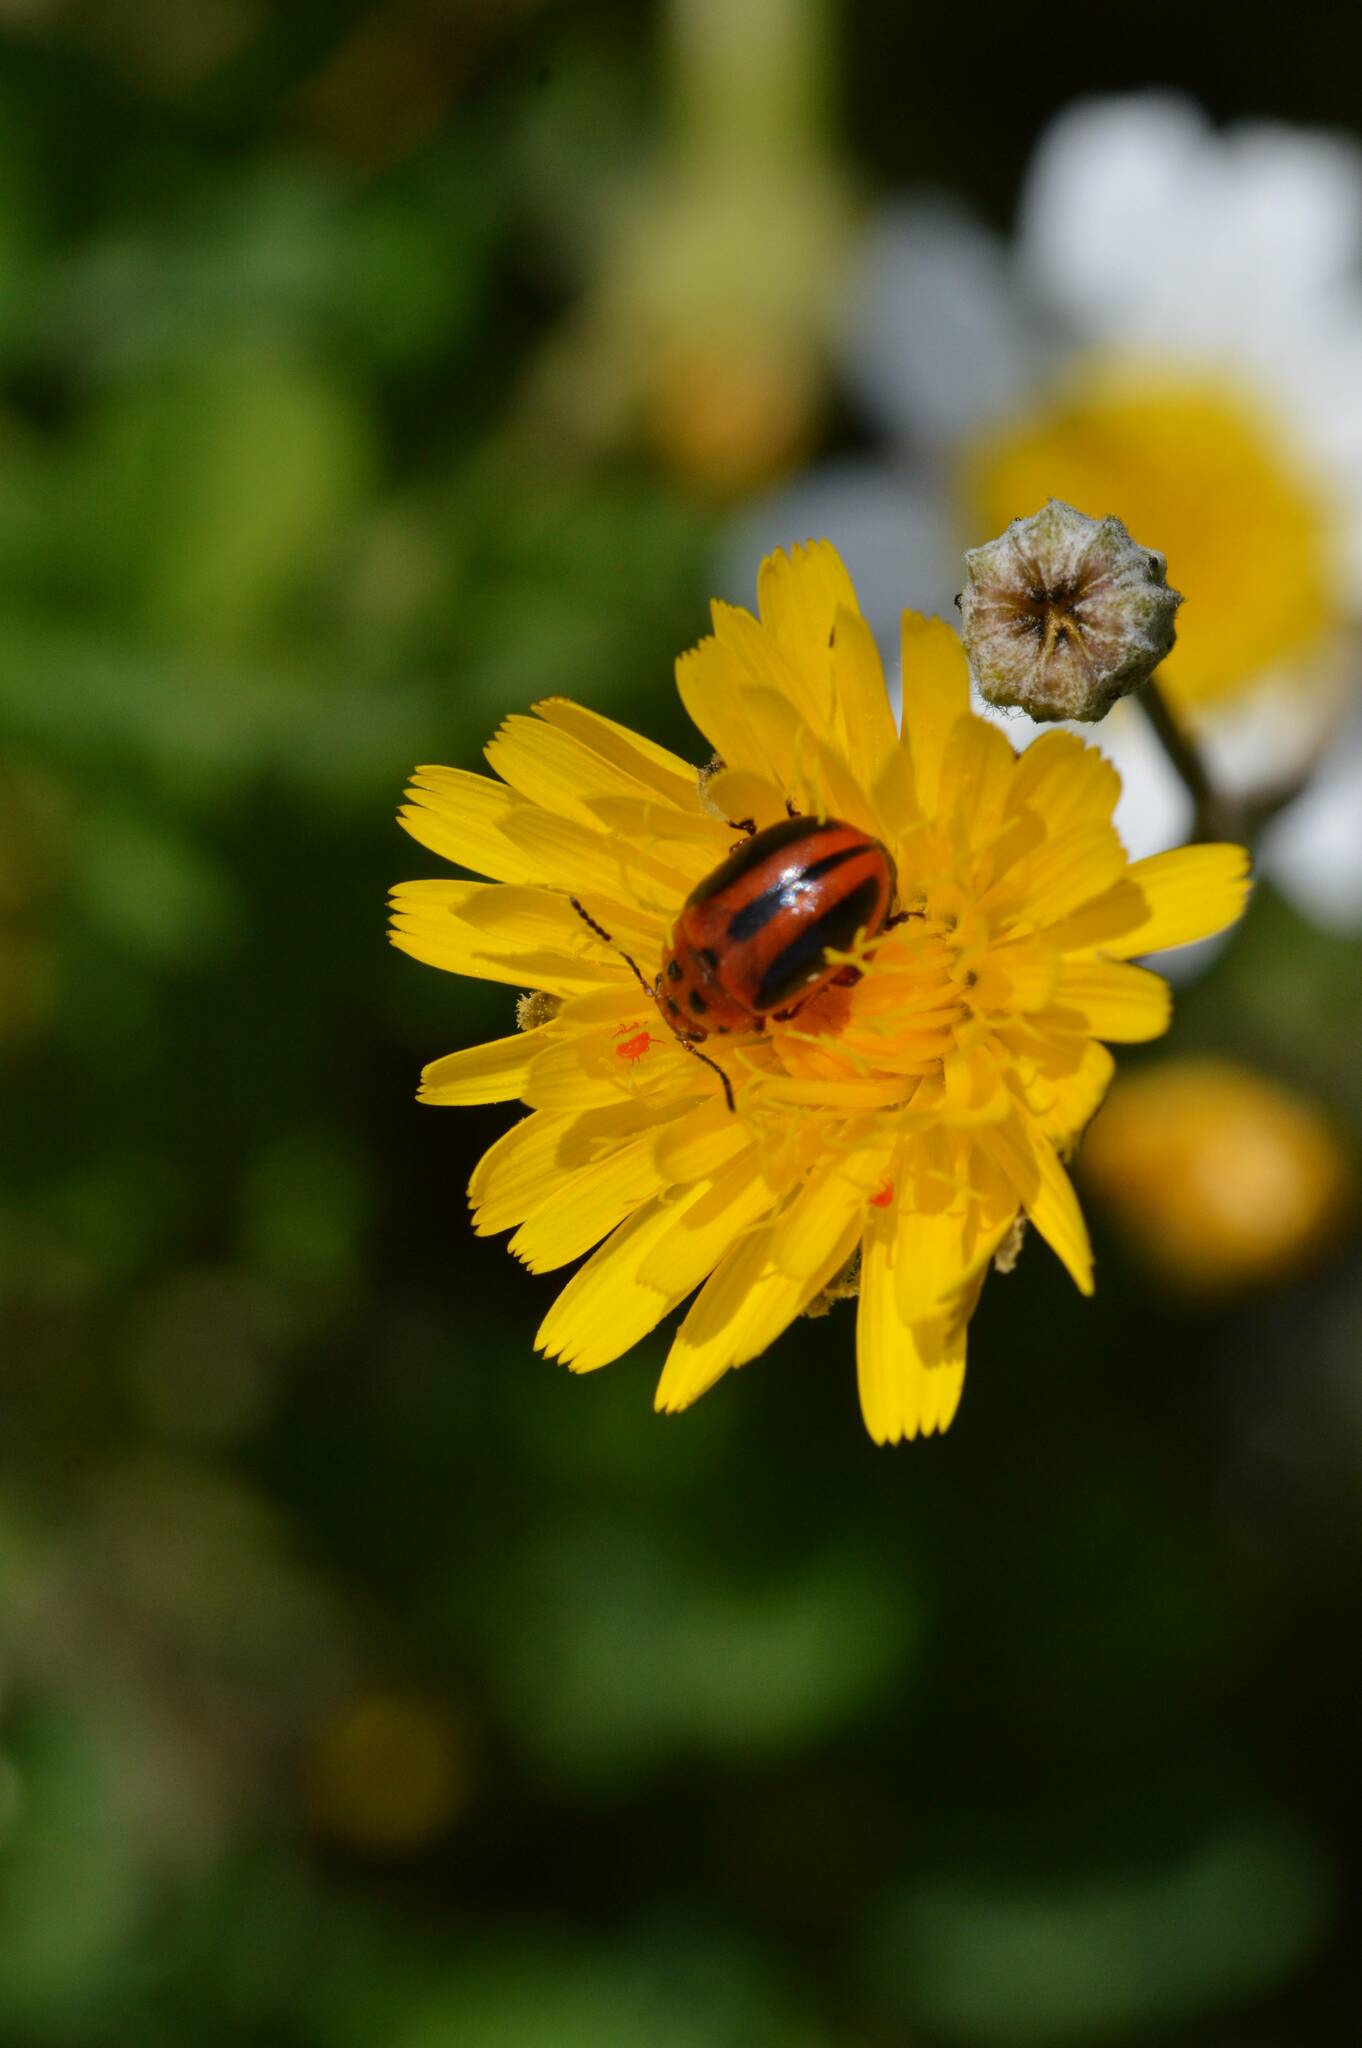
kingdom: Animalia
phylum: Arthropoda
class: Insecta
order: Coleoptera
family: Chrysomelidae
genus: Entomoscelis
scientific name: Entomoscelis rumicis
